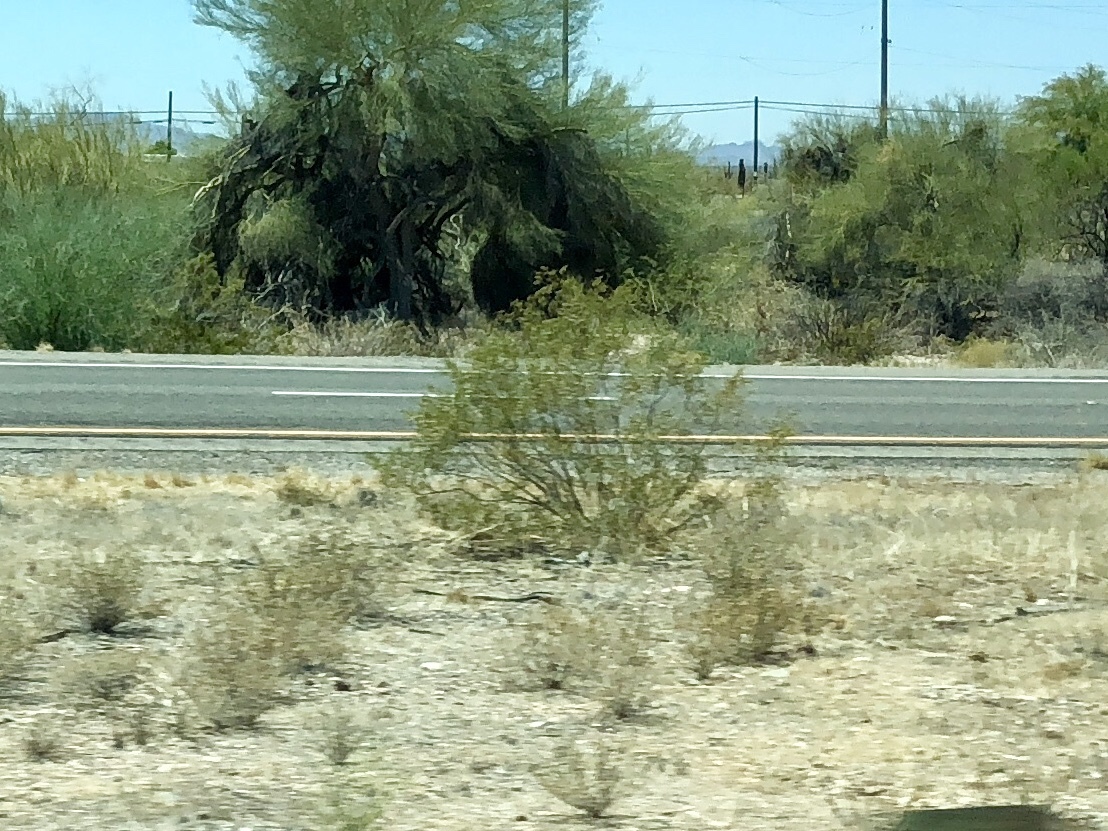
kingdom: Plantae
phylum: Tracheophyta
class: Magnoliopsida
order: Zygophyllales
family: Zygophyllaceae
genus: Larrea
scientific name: Larrea tridentata
